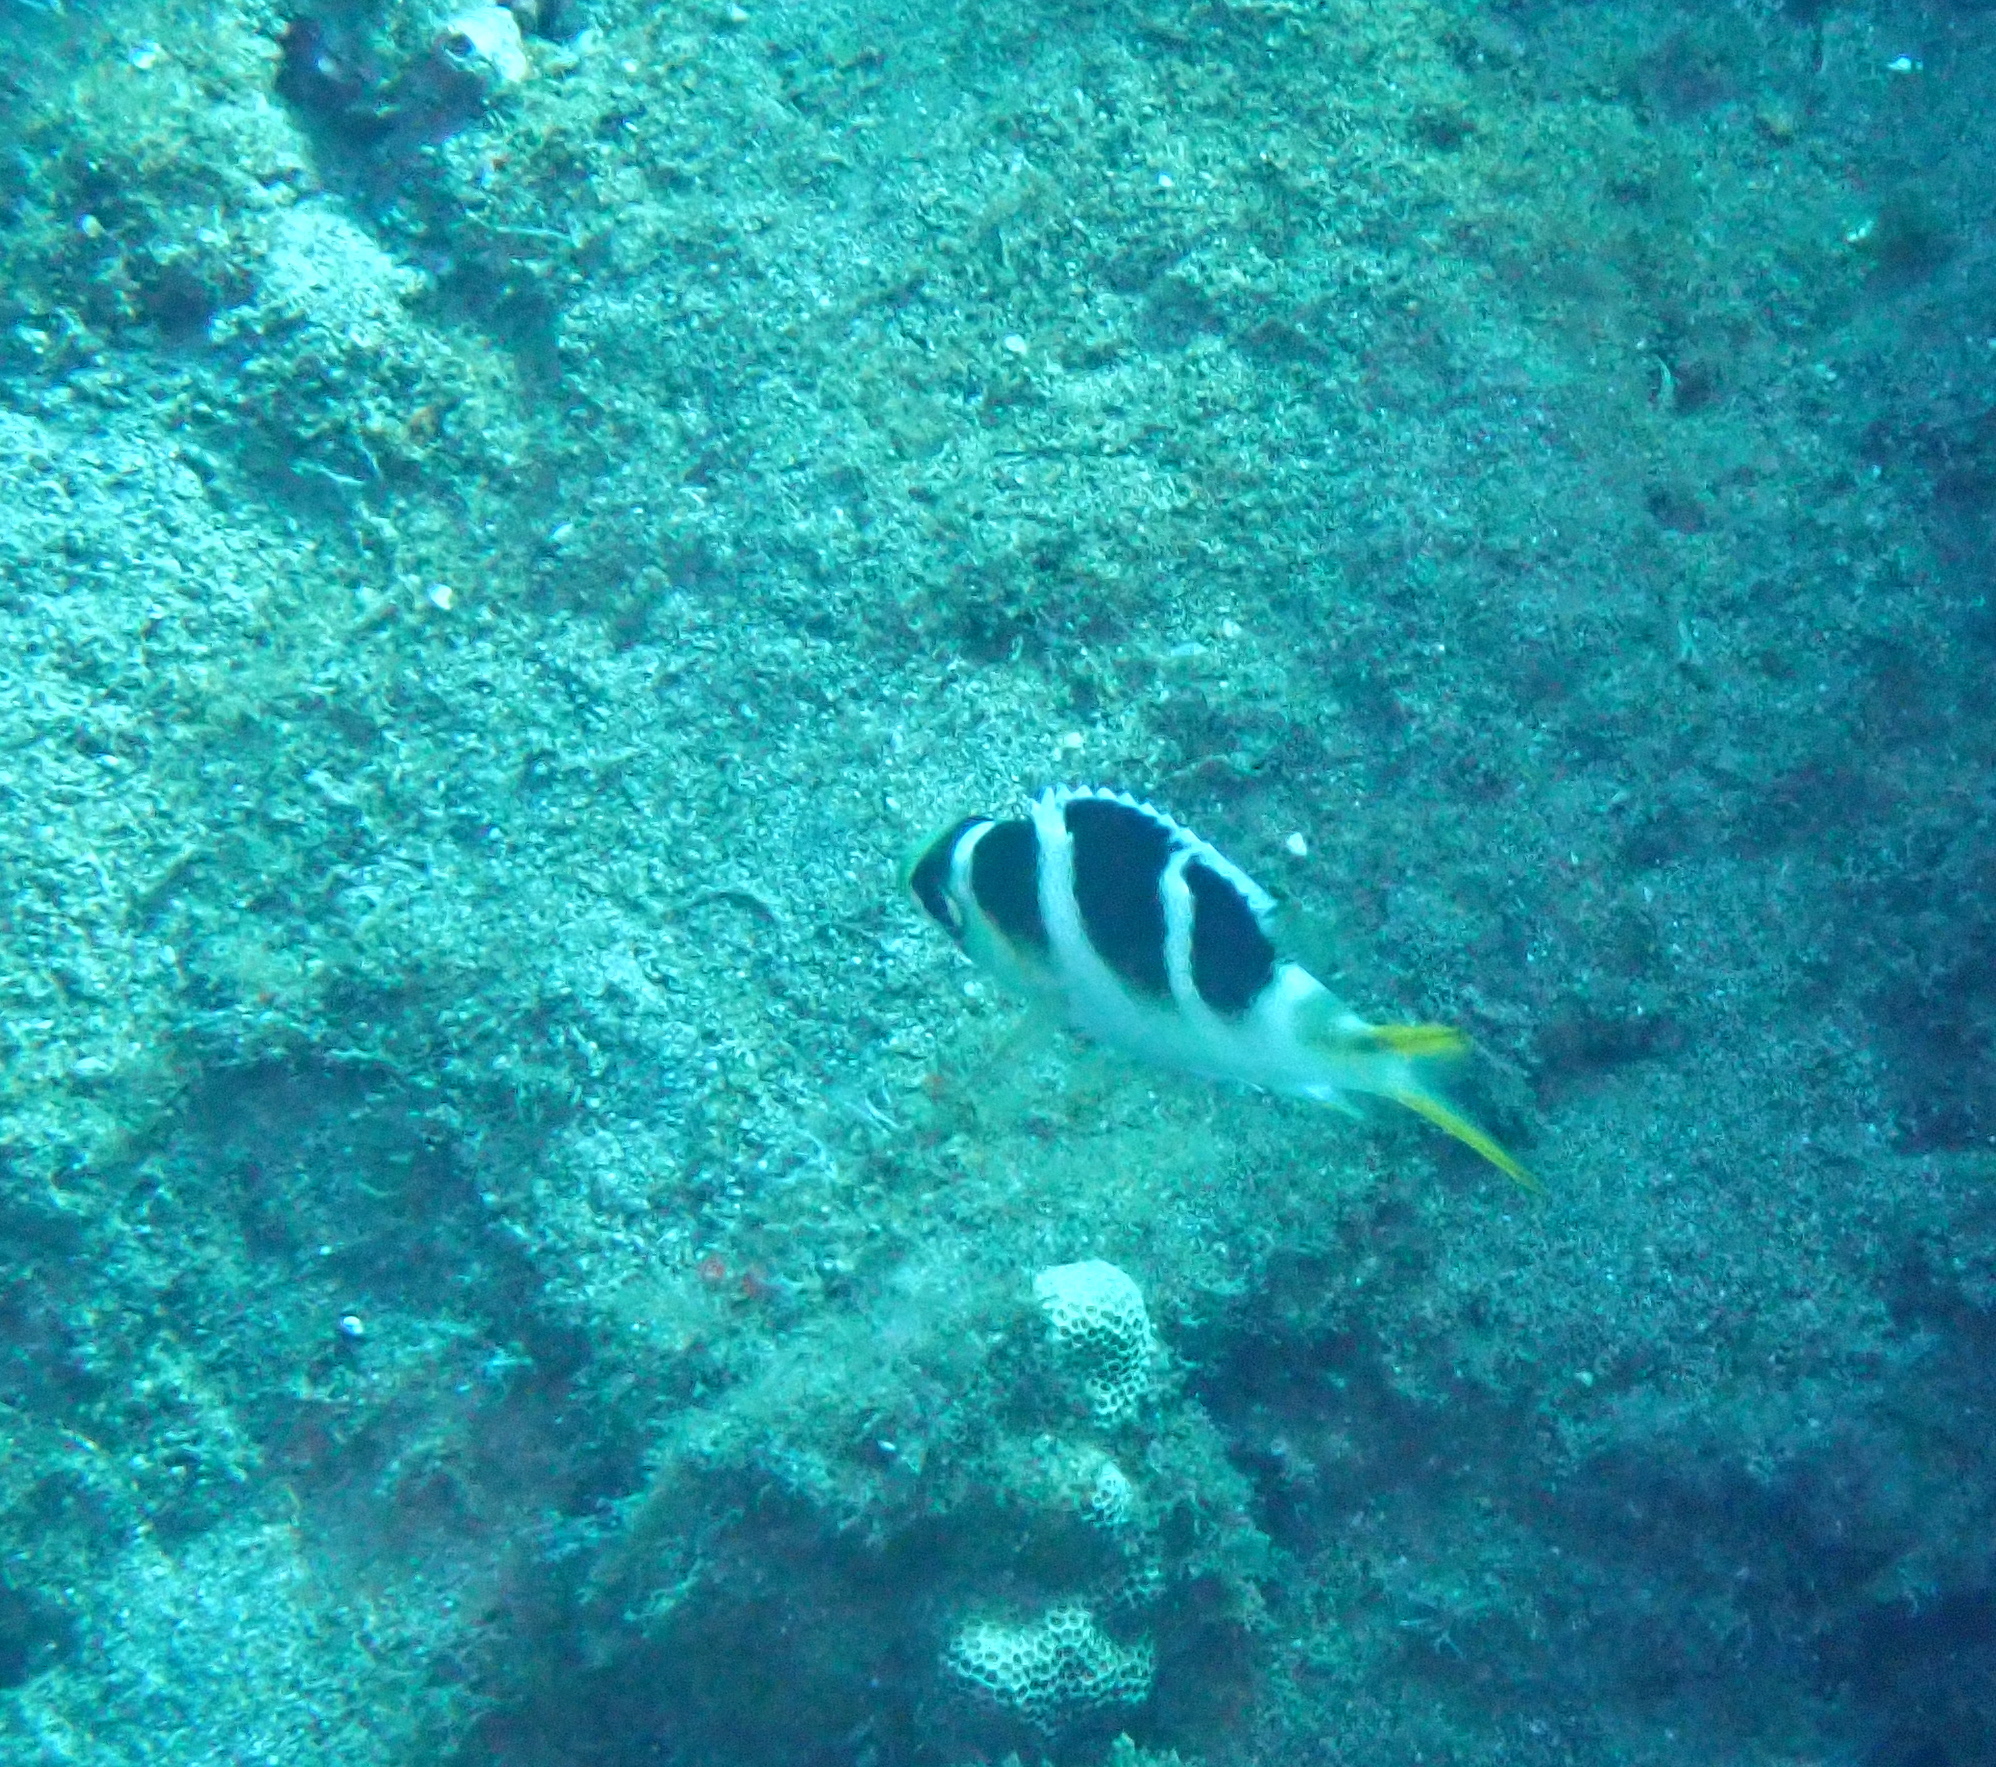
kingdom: Animalia
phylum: Chordata
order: Perciformes
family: Lethrinidae
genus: Monotaxis
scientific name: Monotaxis grandoculis
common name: Bigeye emperor
